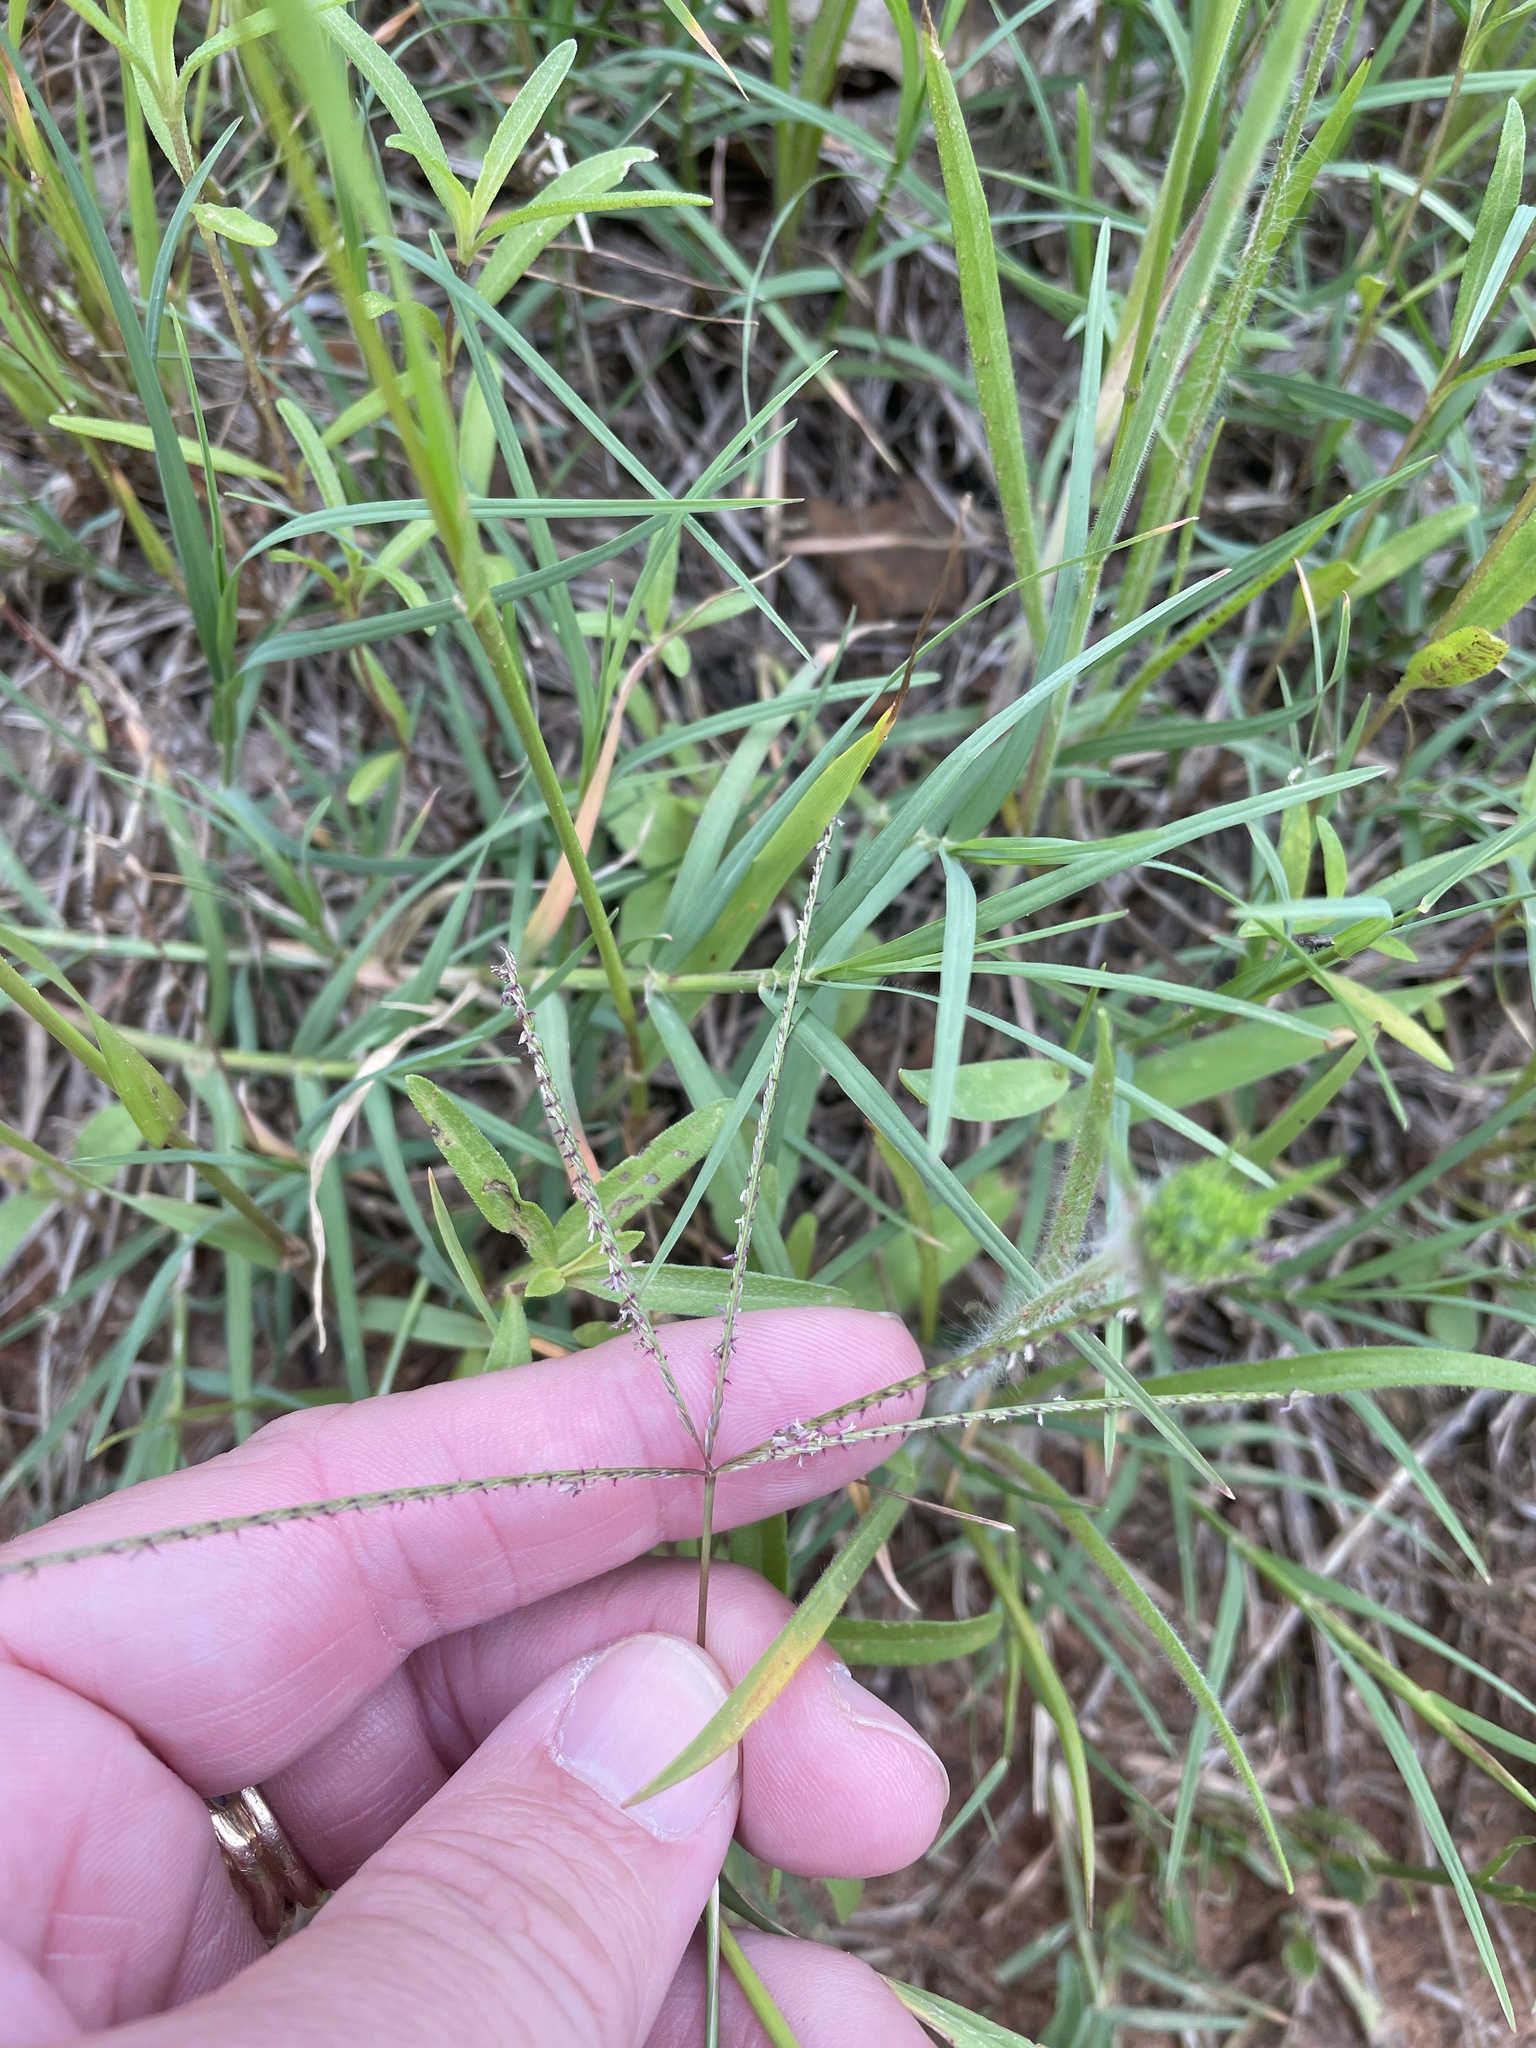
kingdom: Plantae
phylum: Tracheophyta
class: Liliopsida
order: Poales
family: Poaceae
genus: Cynodon
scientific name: Cynodon dactylon
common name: Bermuda grass
